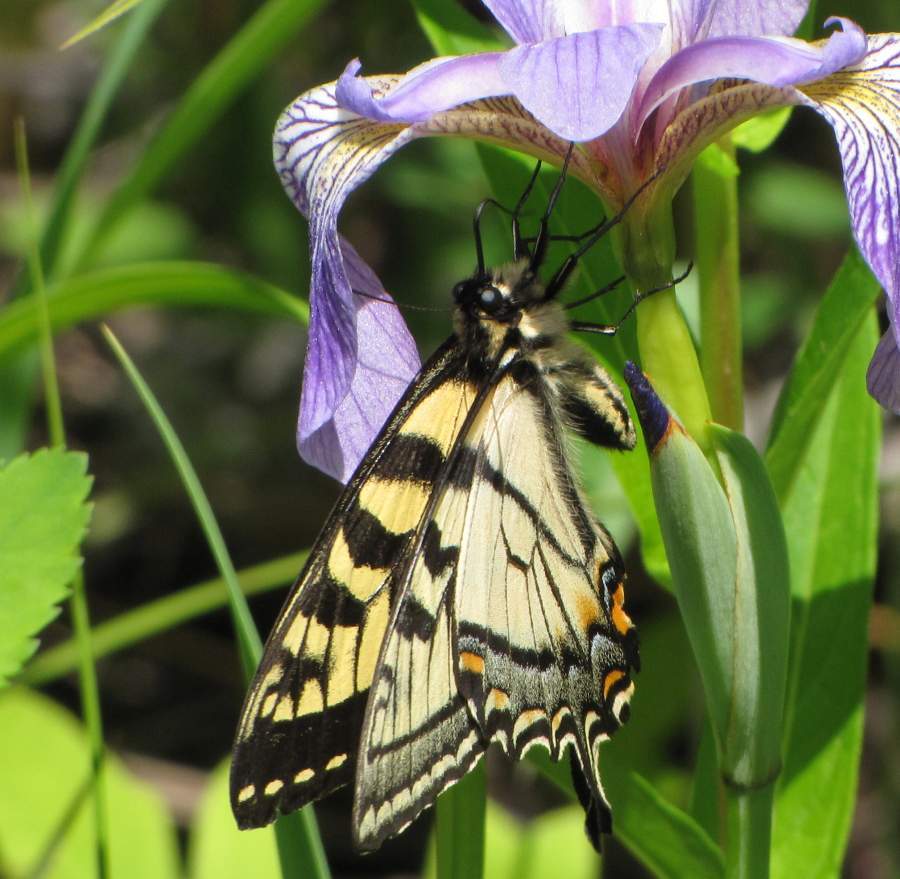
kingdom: Animalia
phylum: Arthropoda
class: Insecta
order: Lepidoptera
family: Papilionidae
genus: Papilio
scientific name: Papilio canadensis
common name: Canadian tiger swallowtail
